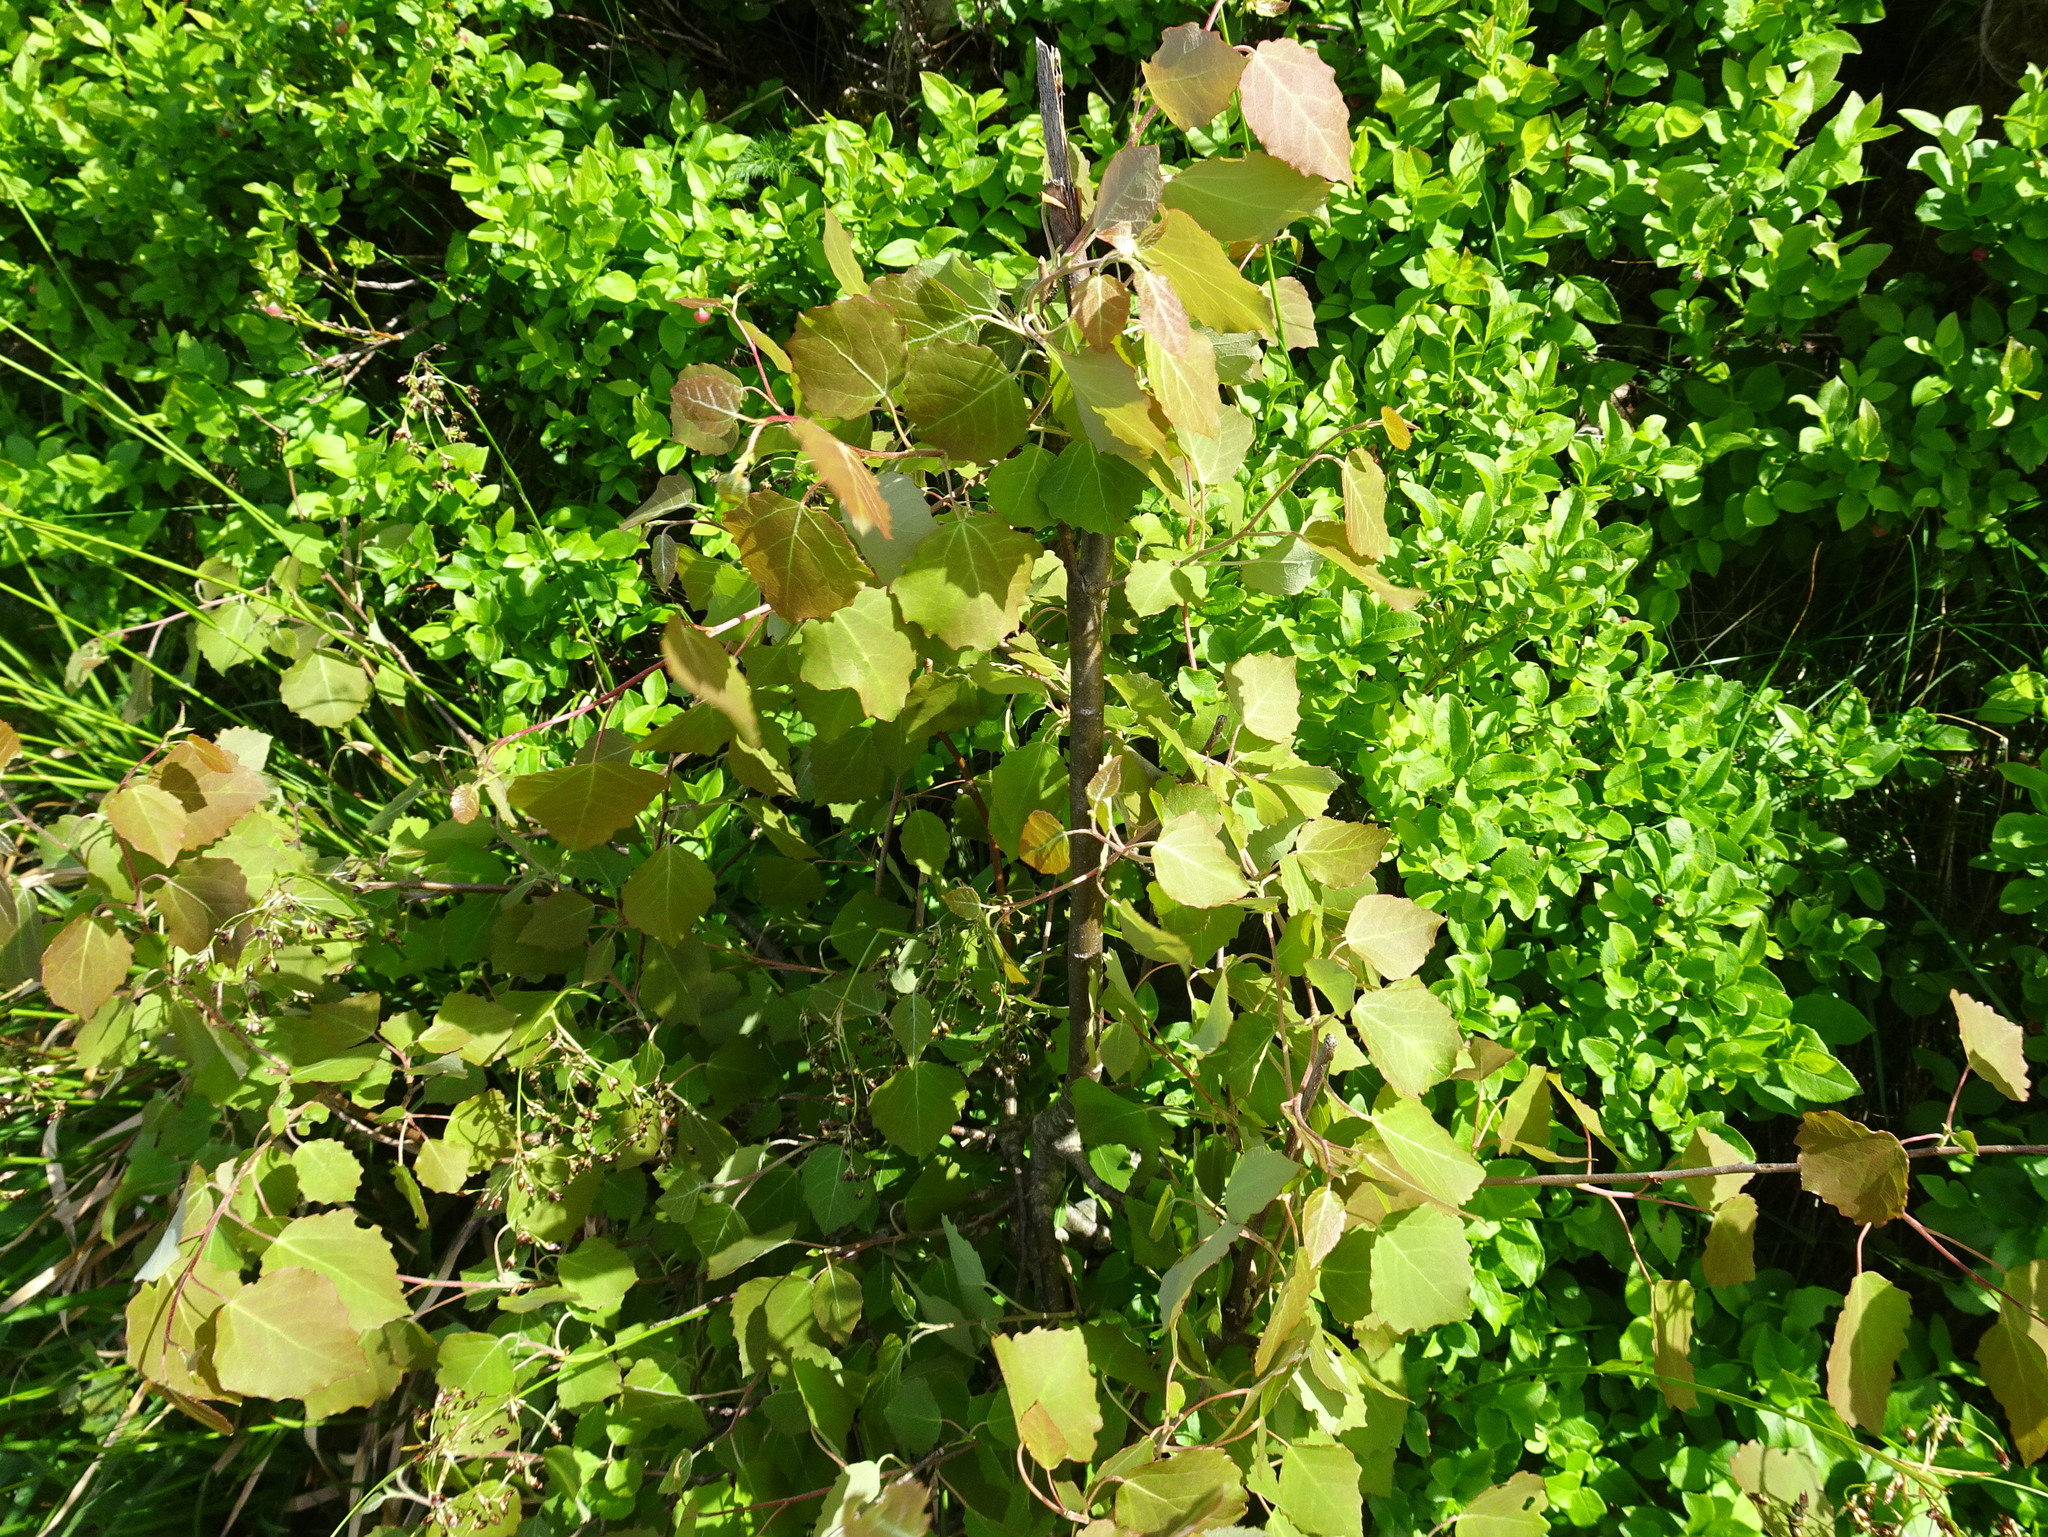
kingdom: Plantae
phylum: Tracheophyta
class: Magnoliopsida
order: Malpighiales
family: Salicaceae
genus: Populus
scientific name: Populus tremula
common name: European aspen
